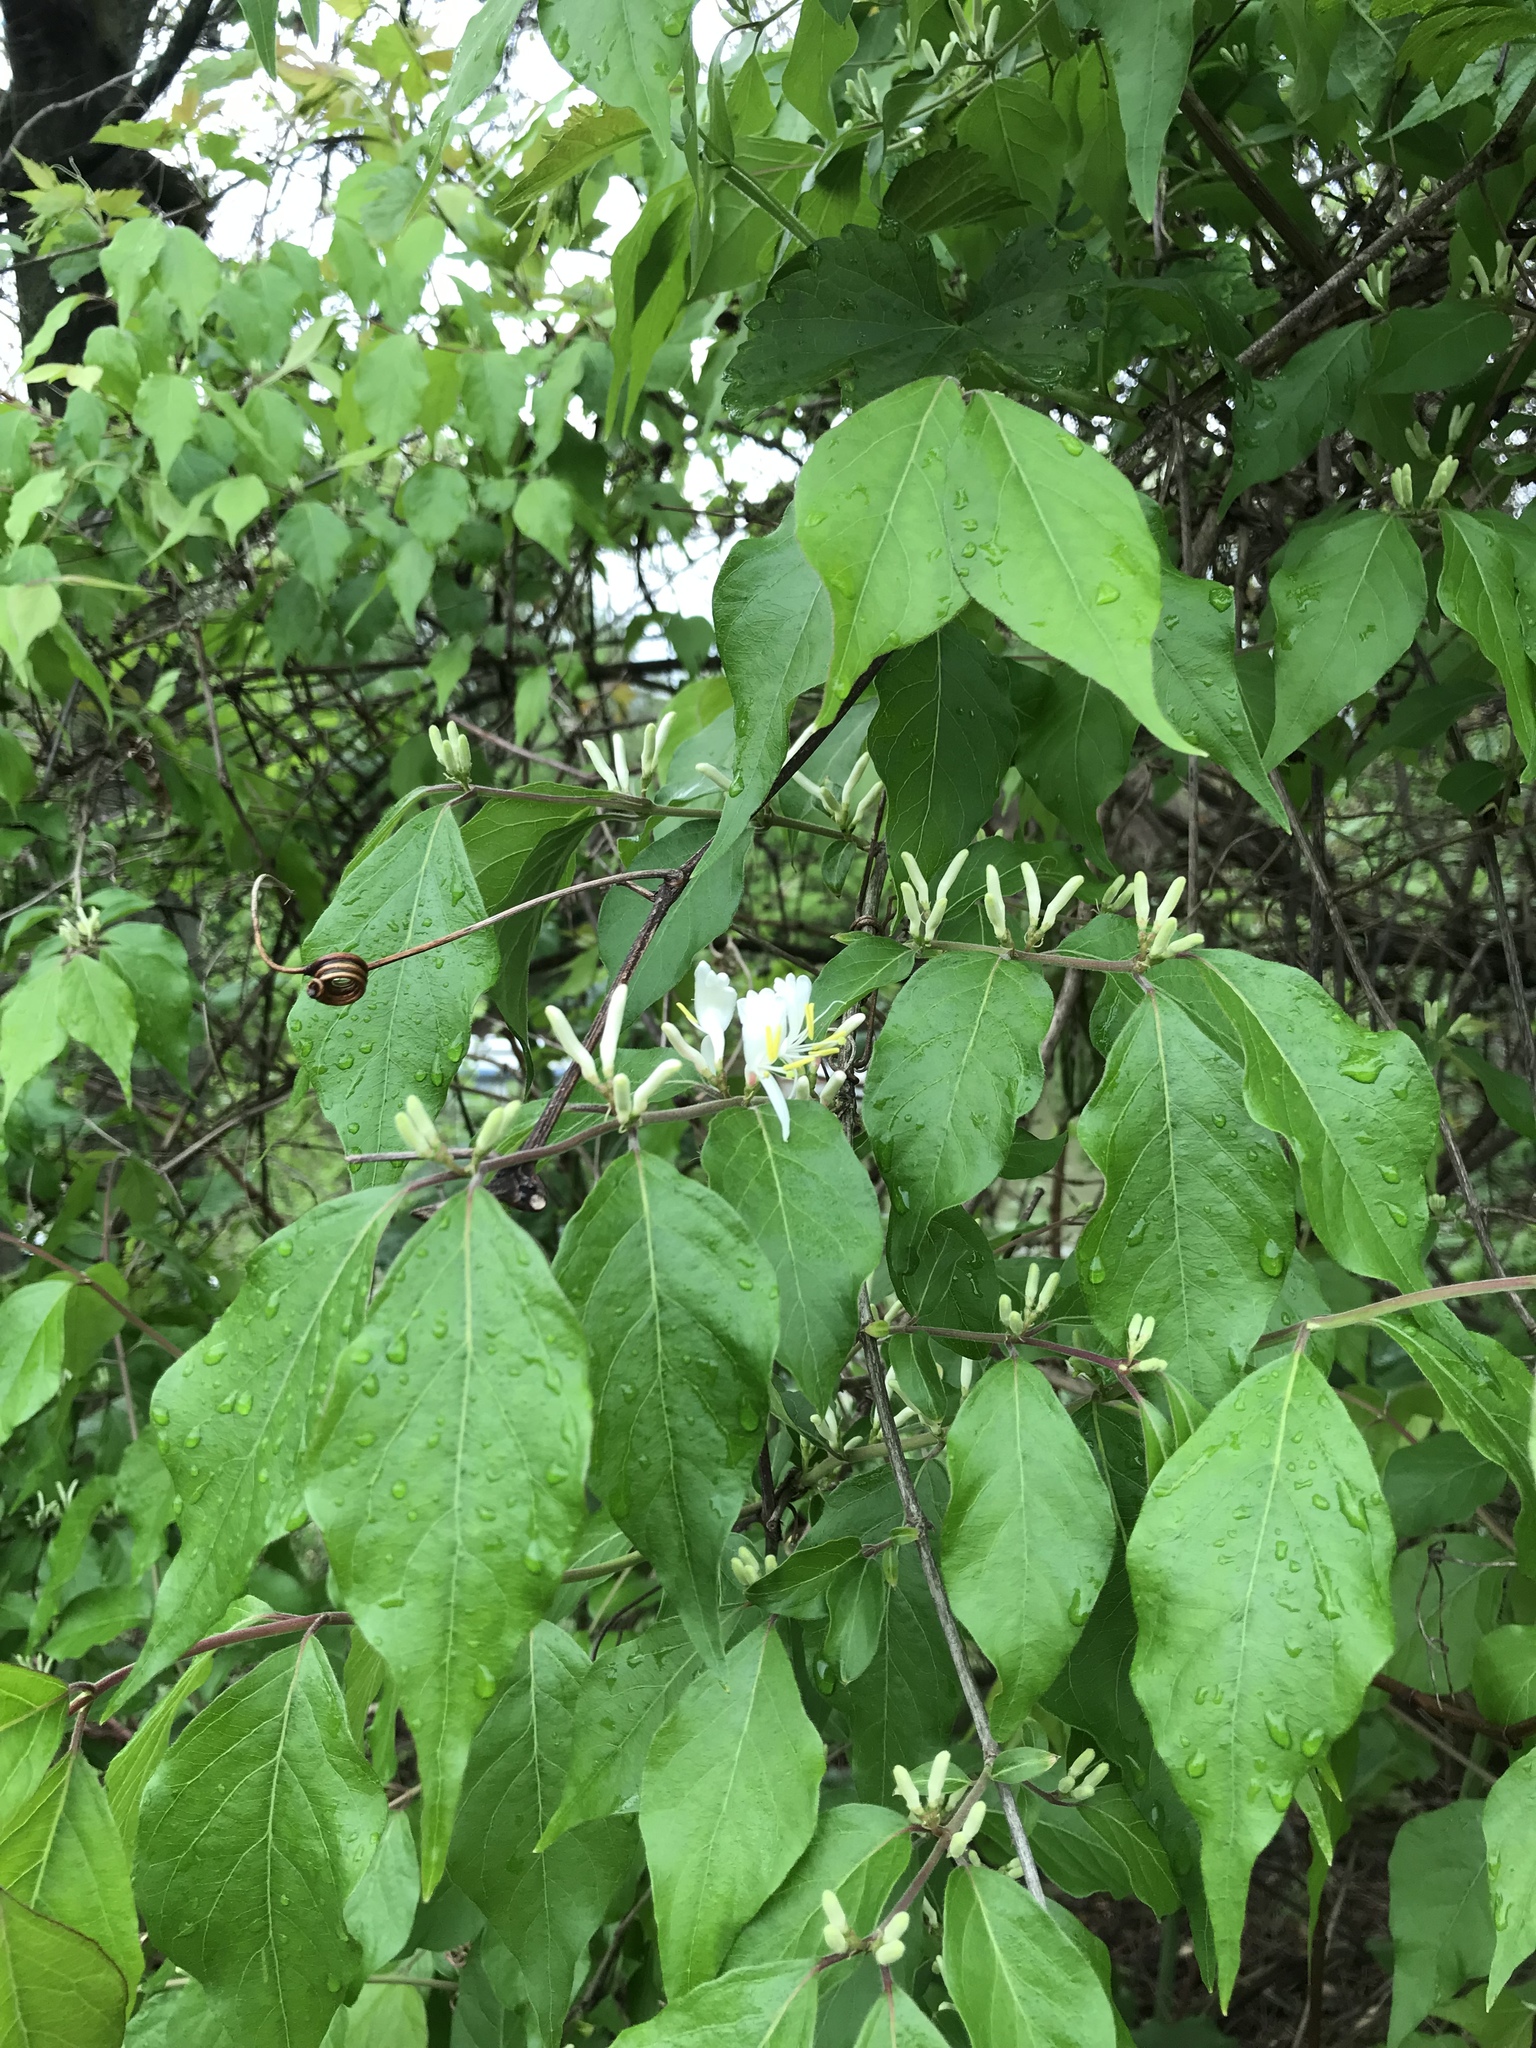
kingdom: Plantae
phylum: Tracheophyta
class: Magnoliopsida
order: Dipsacales
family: Caprifoliaceae
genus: Lonicera
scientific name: Lonicera maackii
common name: Amur honeysuckle
